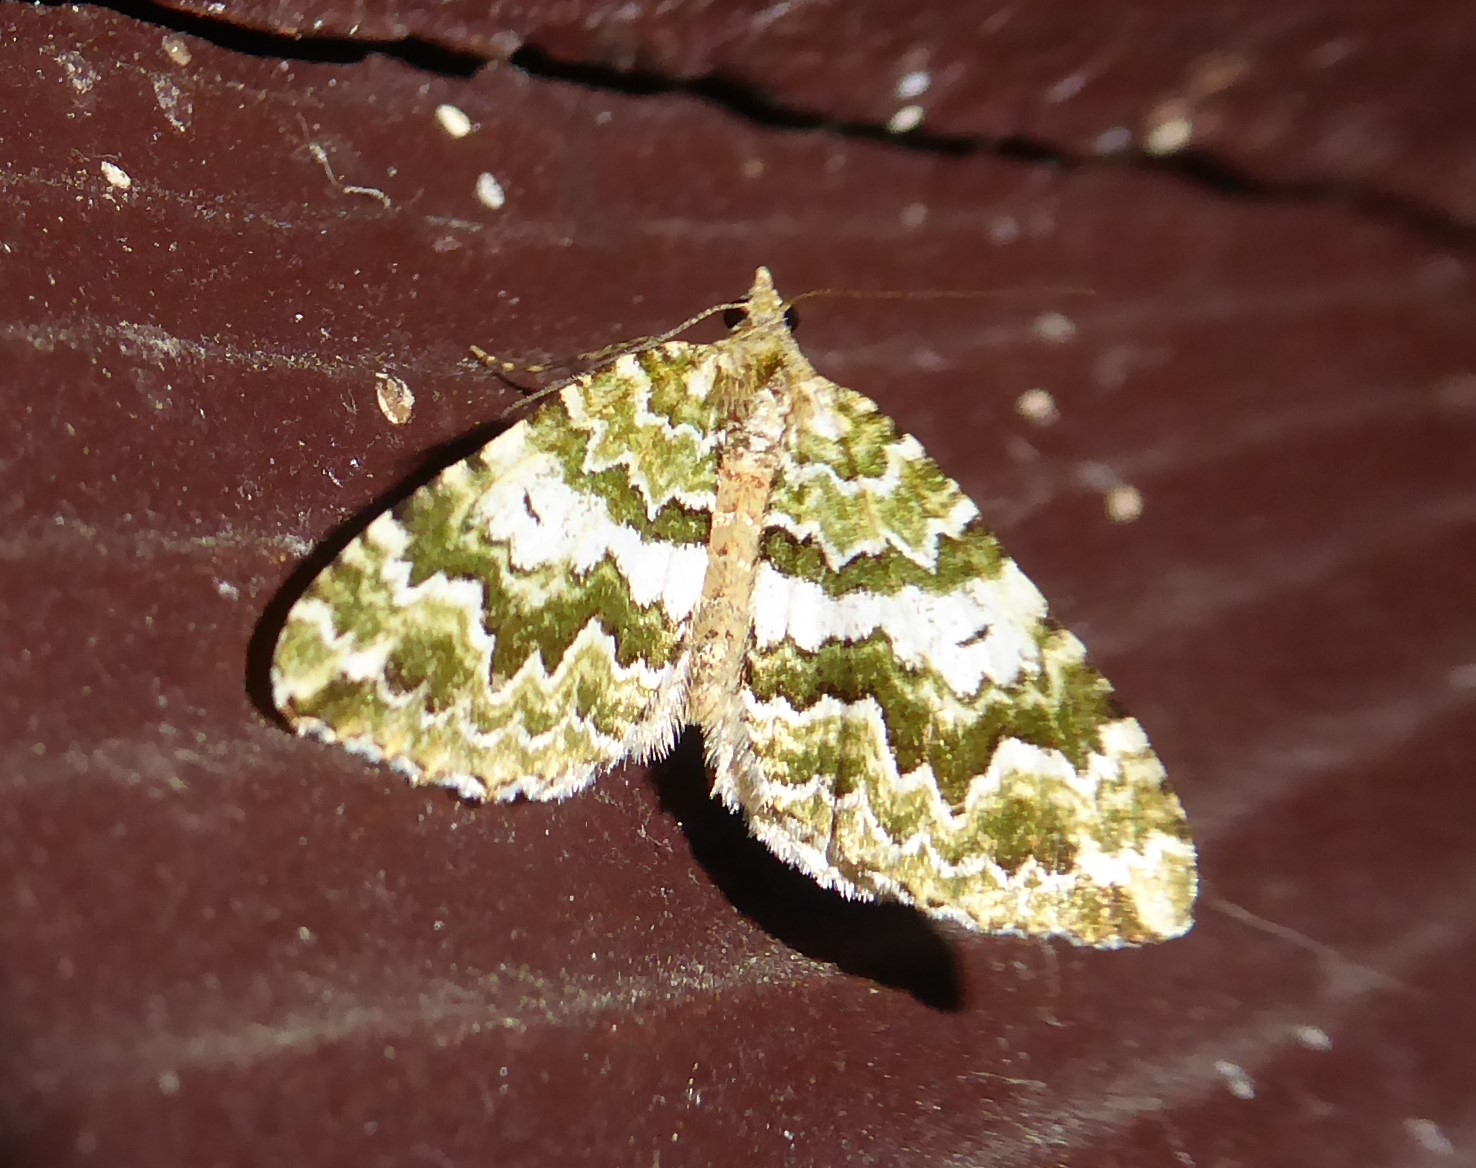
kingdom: Animalia
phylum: Arthropoda
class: Insecta
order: Lepidoptera
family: Geometridae
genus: Asaphodes
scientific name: Asaphodes beata
